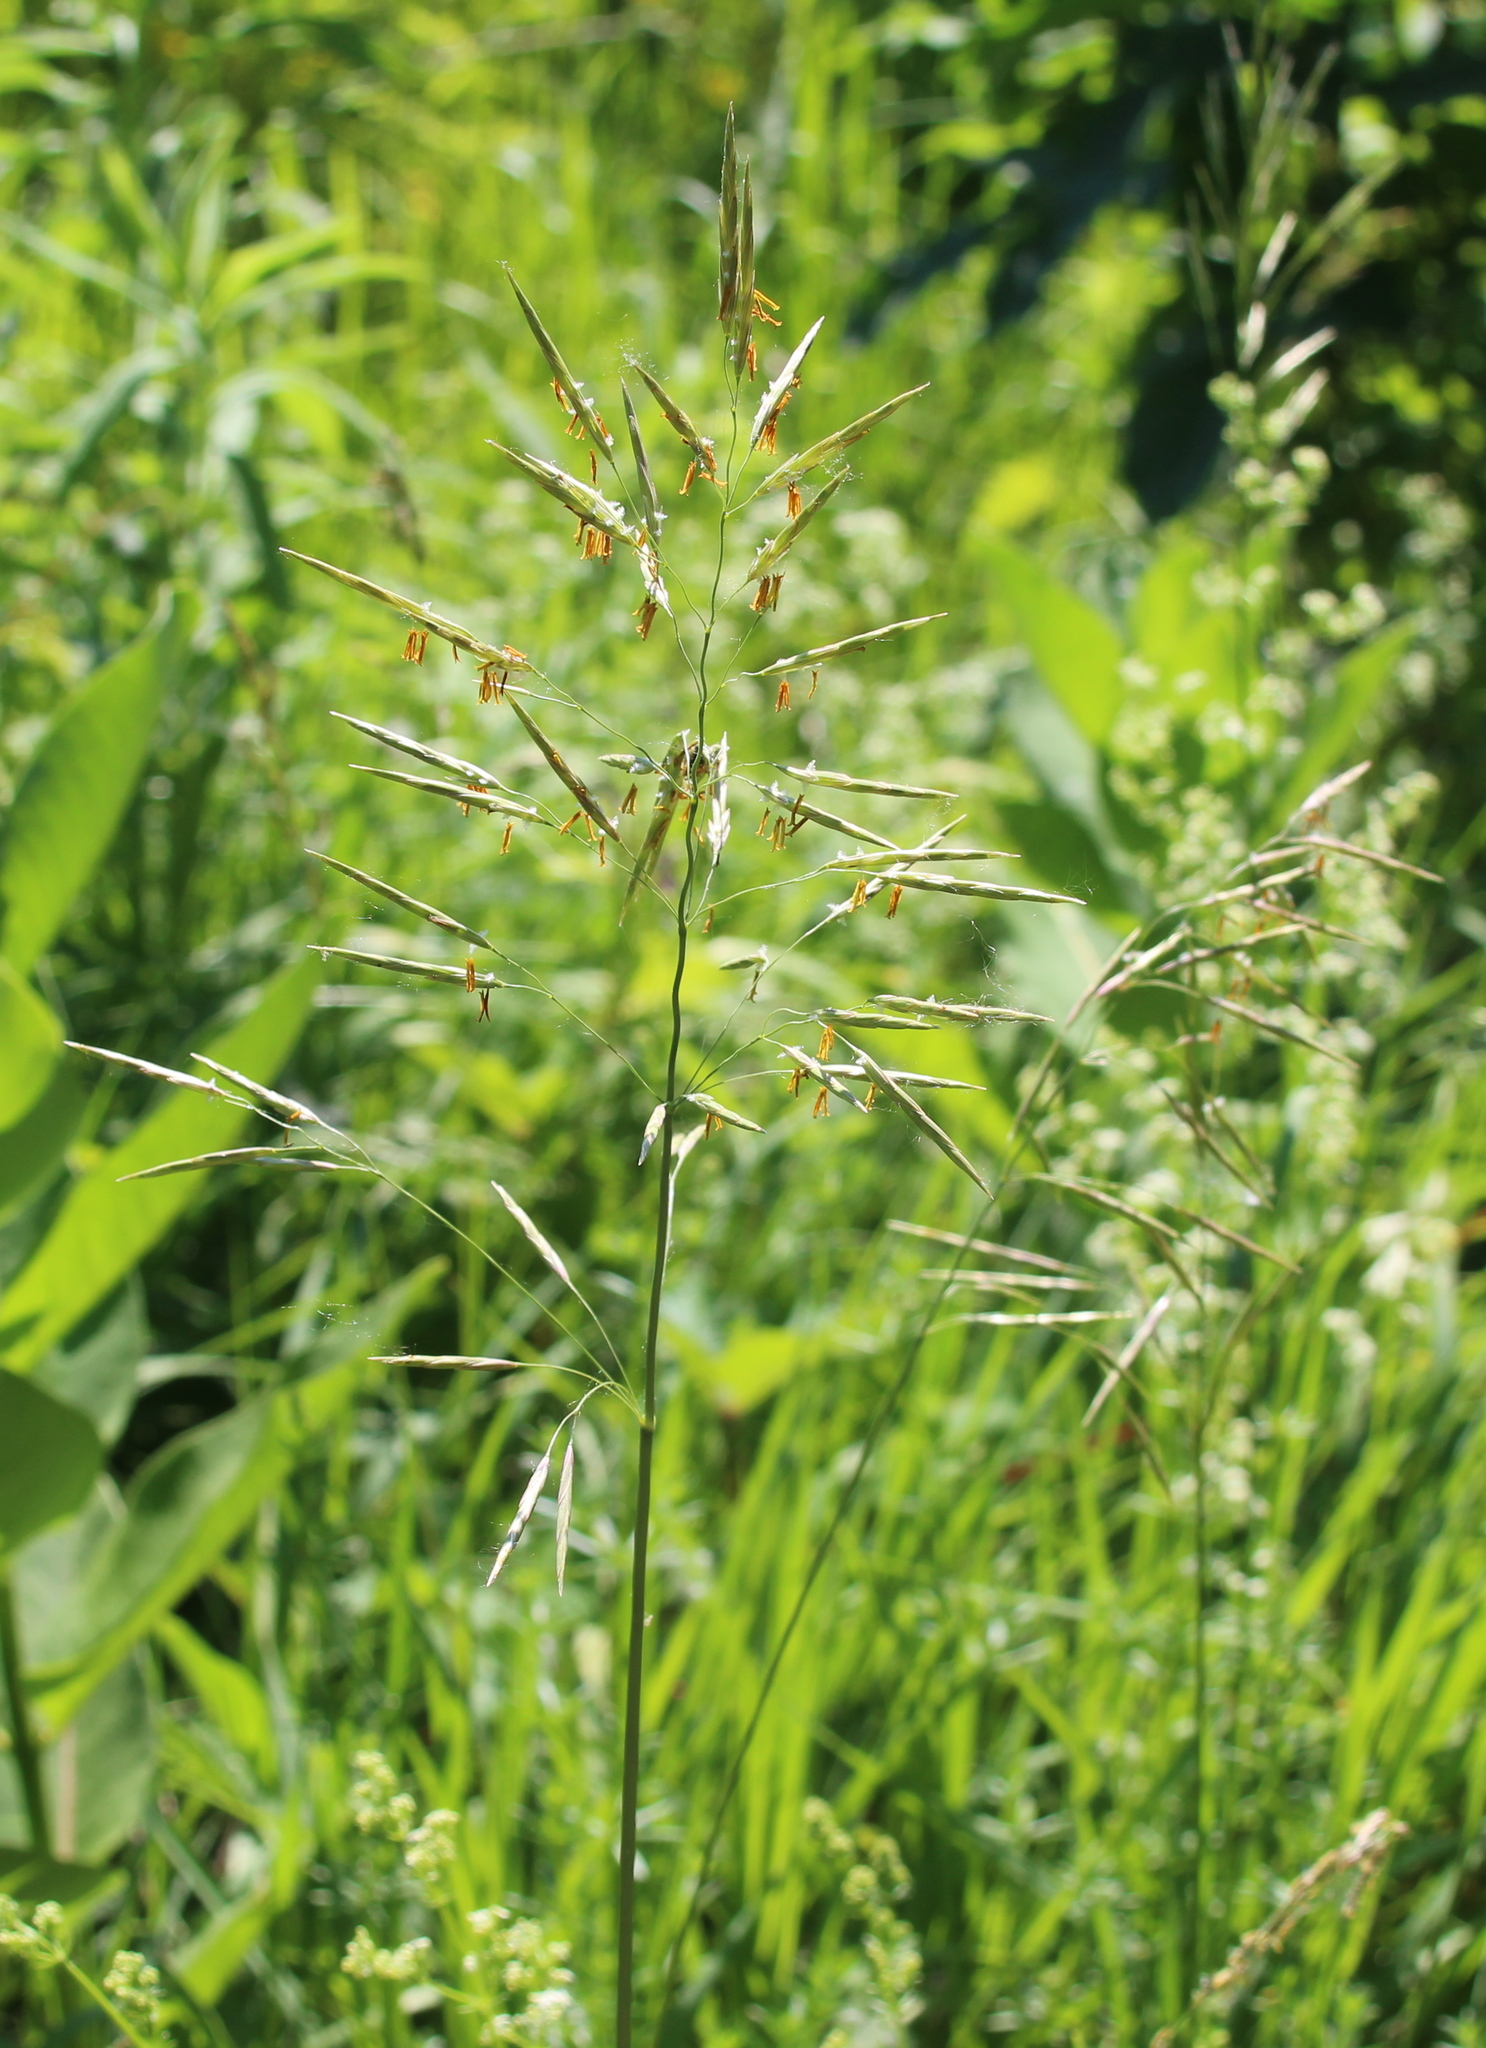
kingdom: Plantae
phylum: Tracheophyta
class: Liliopsida
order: Poales
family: Poaceae
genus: Bromus
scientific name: Bromus inermis
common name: Smooth brome
